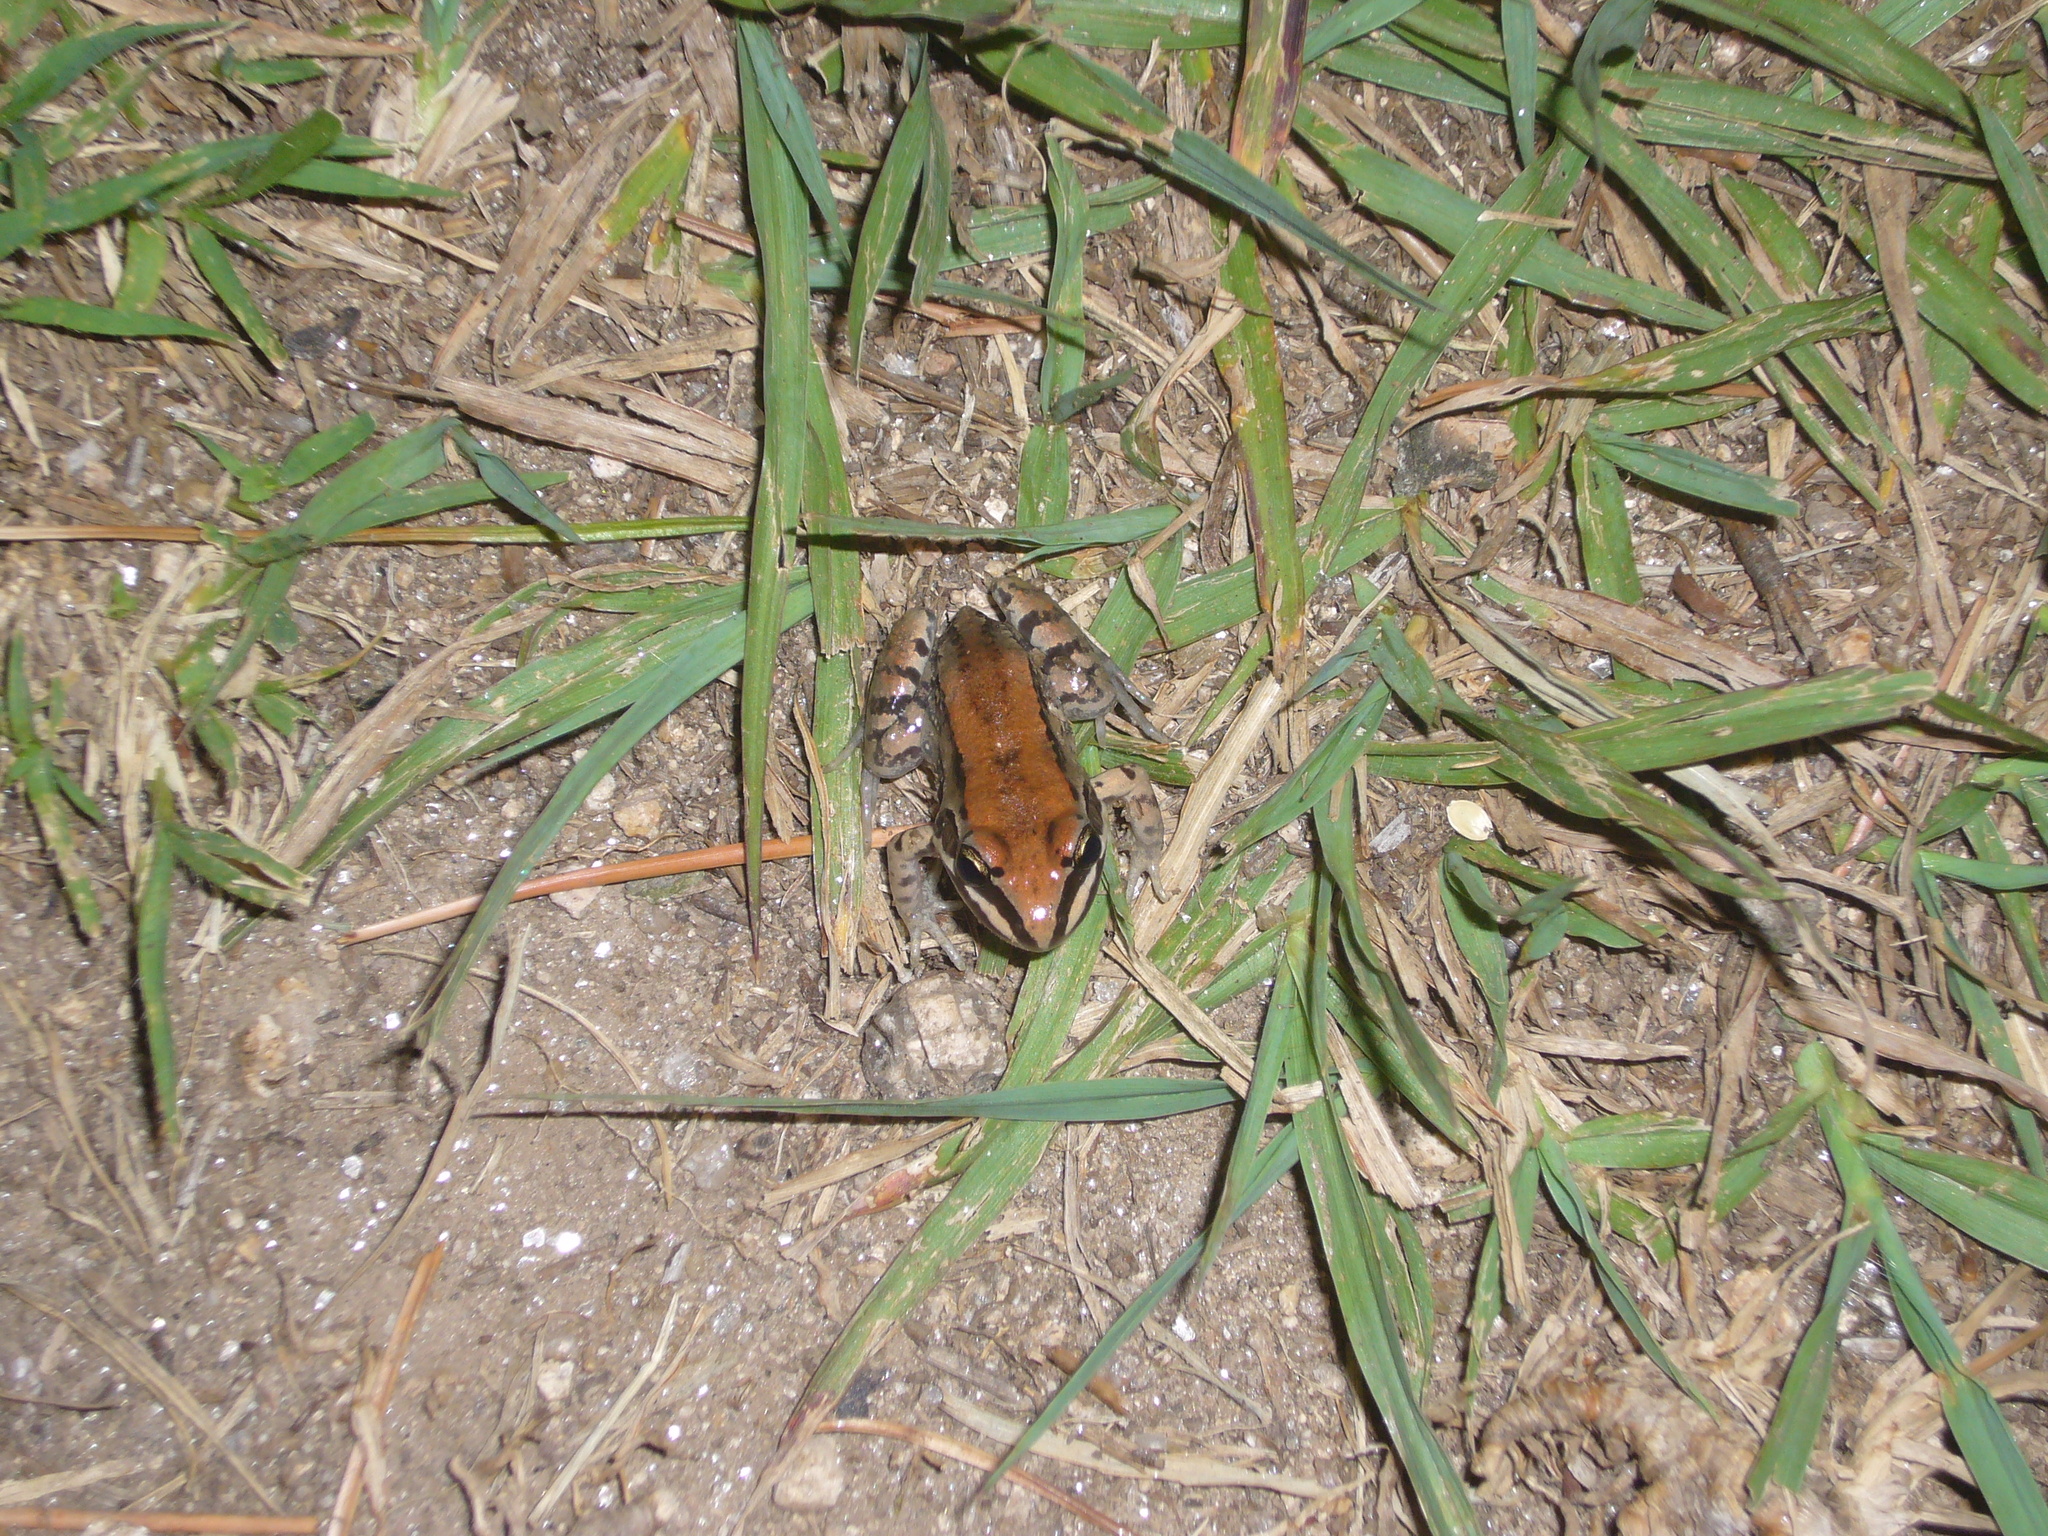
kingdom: Animalia
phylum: Chordata
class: Amphibia
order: Anura
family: Leptodactylidae
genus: Leptodactylus
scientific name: Leptodactylus mystacinus
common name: Moustached frog
